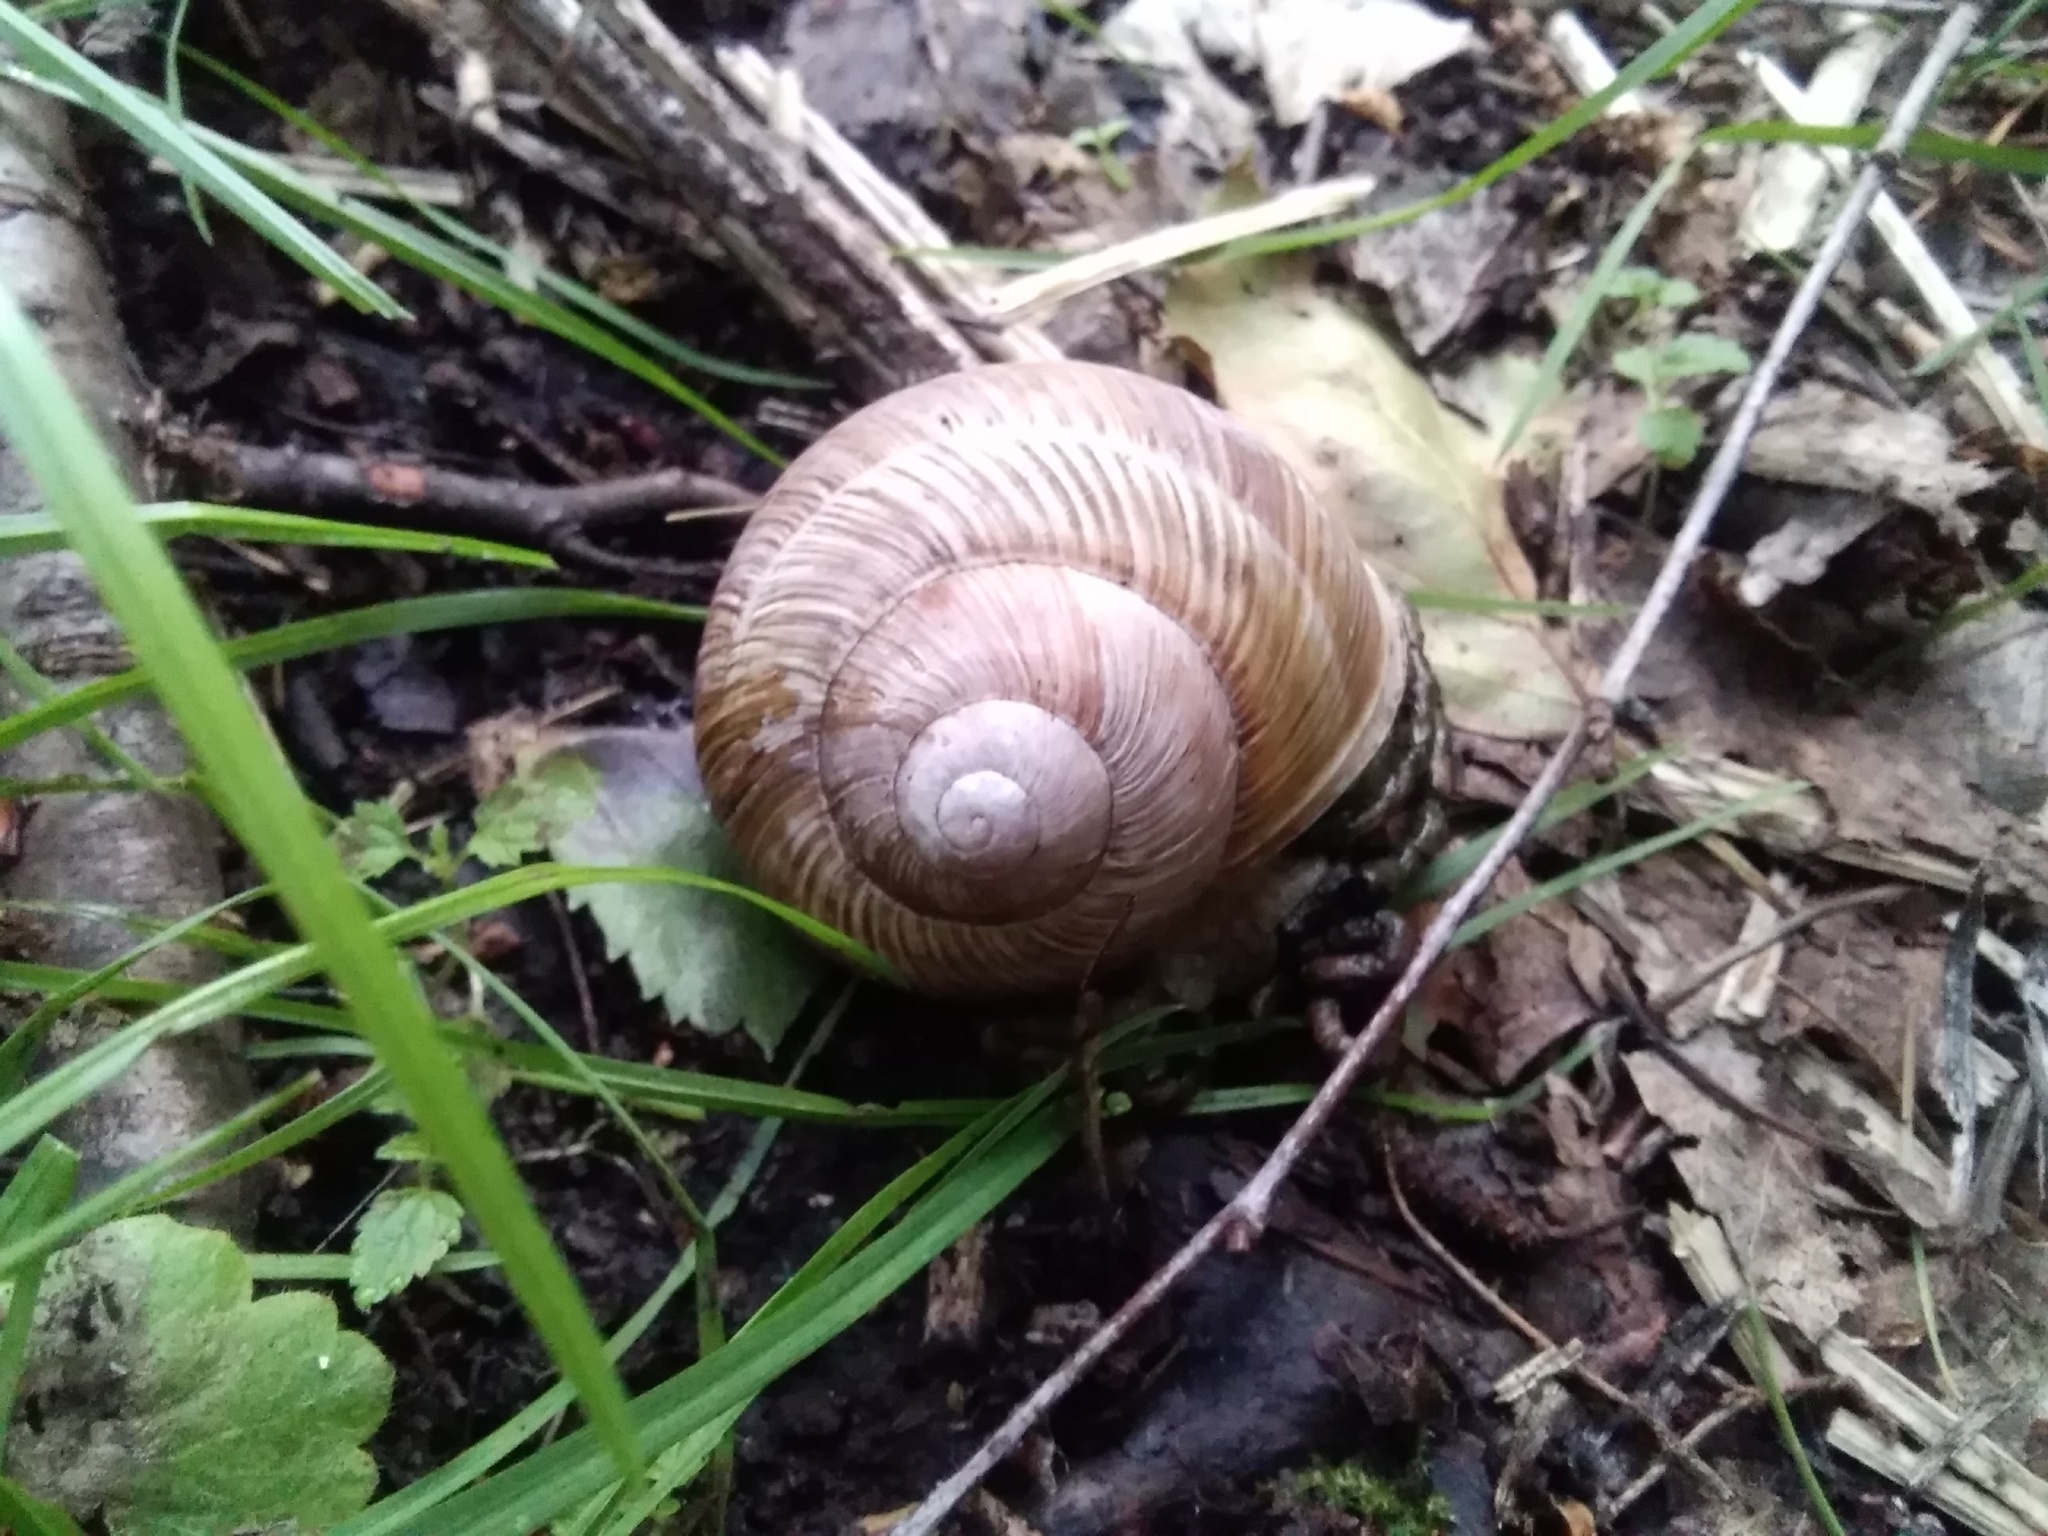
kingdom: Animalia
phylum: Mollusca
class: Gastropoda
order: Stylommatophora
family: Helicidae
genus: Helix
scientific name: Helix pomatia
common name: Roman snail
